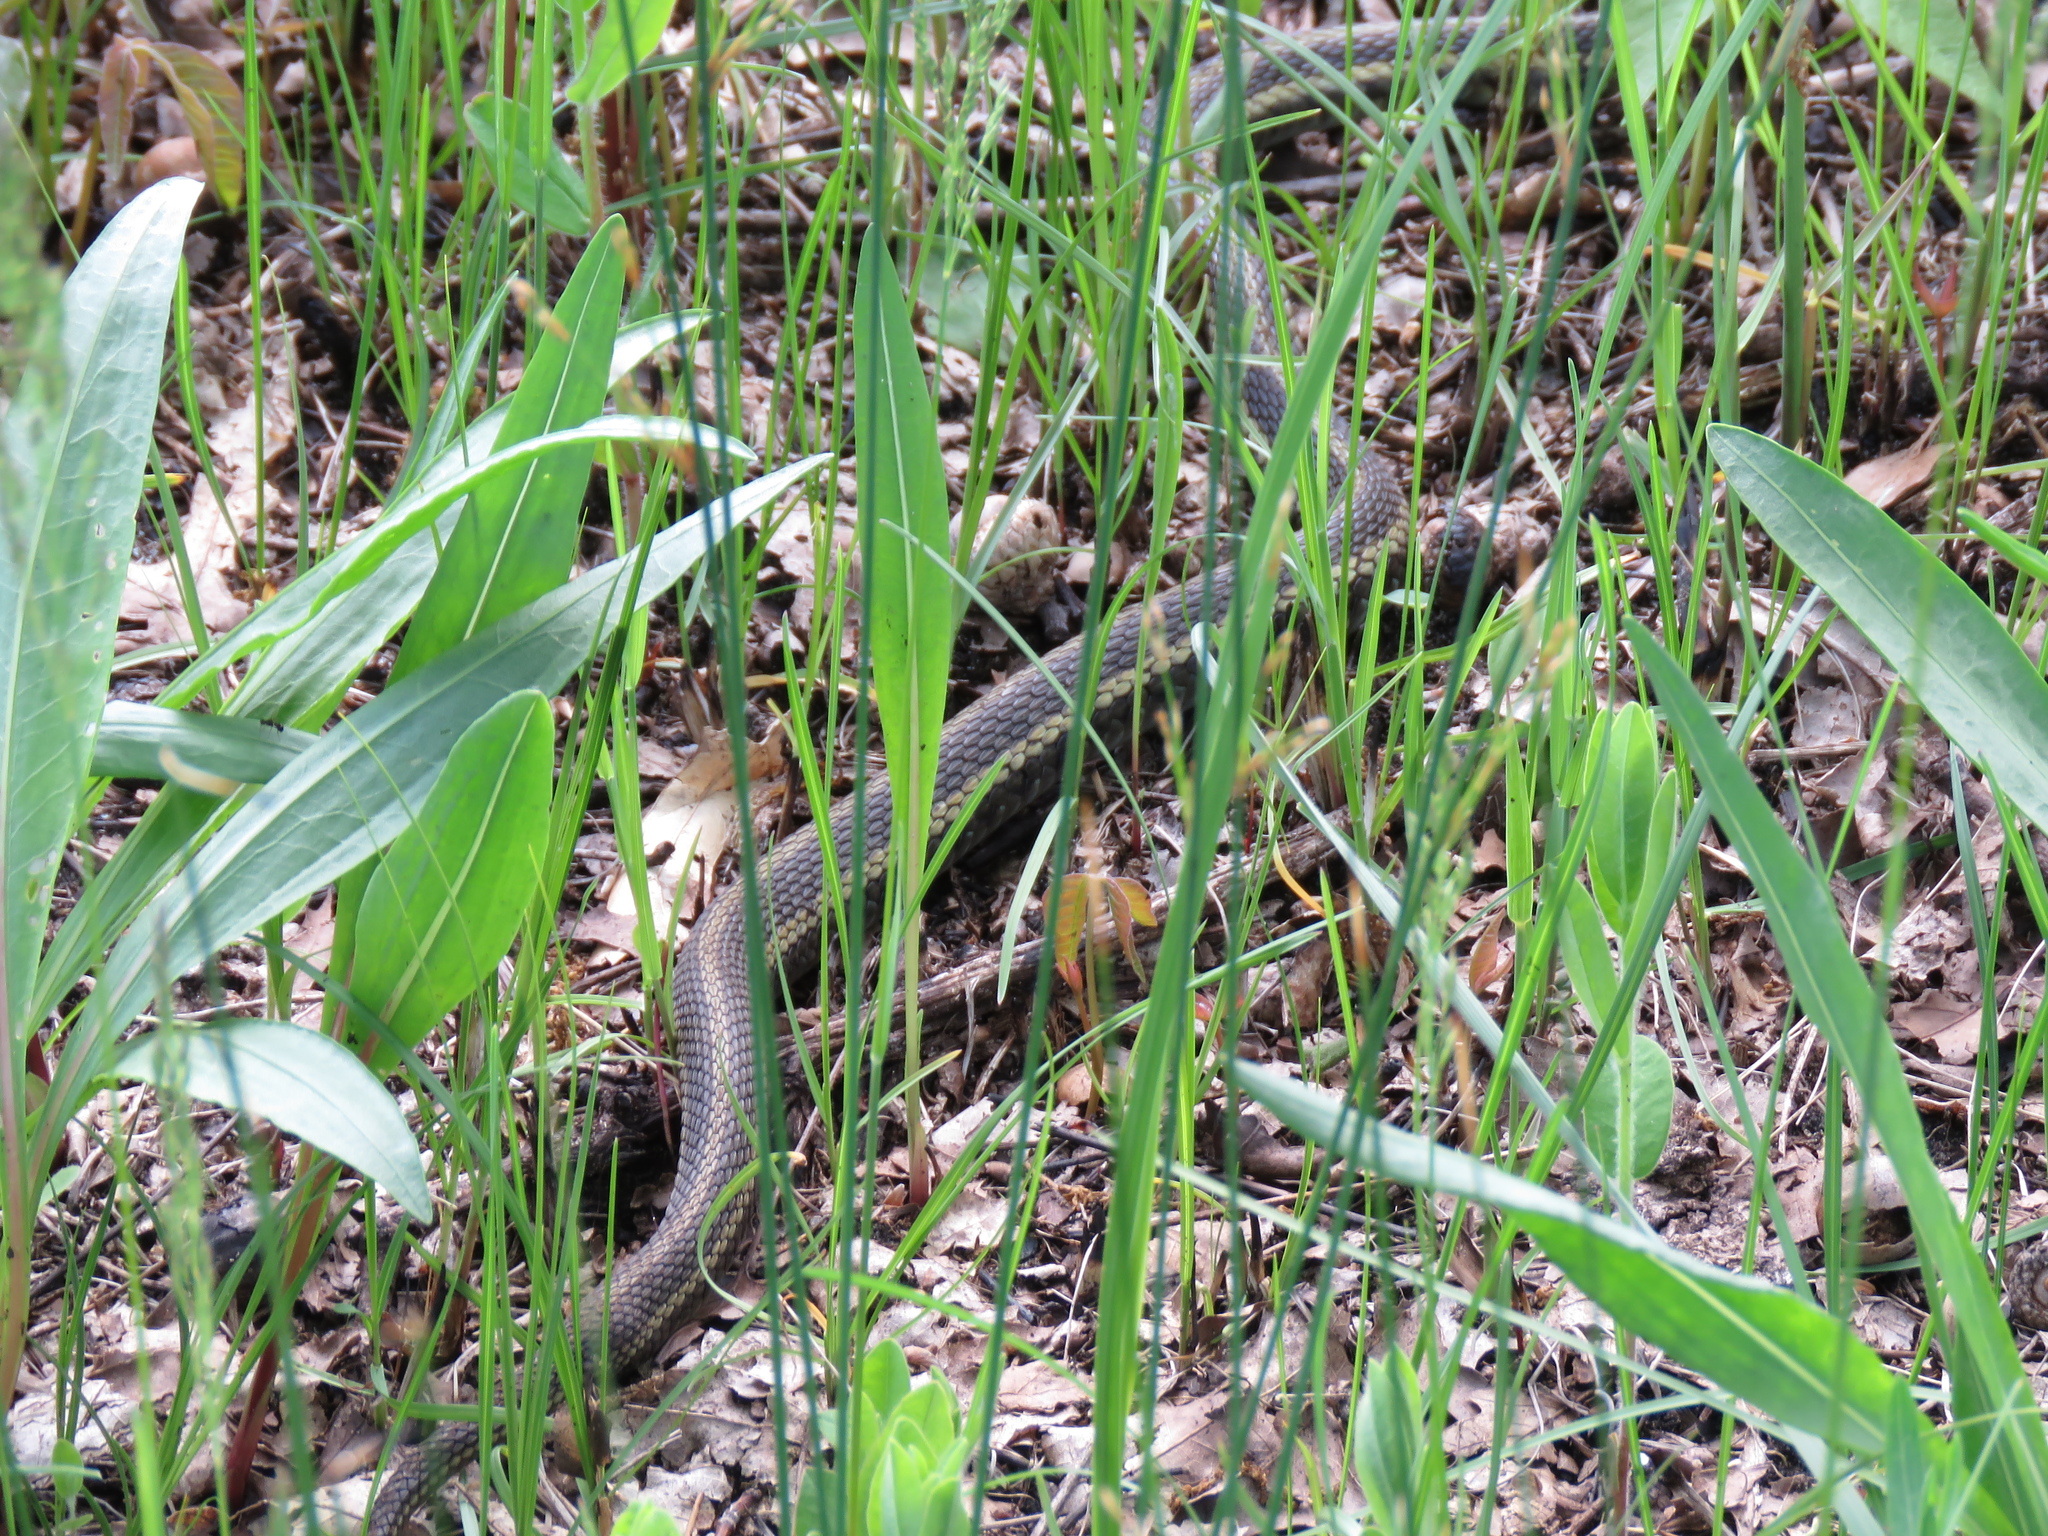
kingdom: Animalia
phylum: Chordata
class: Squamata
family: Colubridae
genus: Thamnophis
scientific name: Thamnophis sirtalis
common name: Common garter snake
